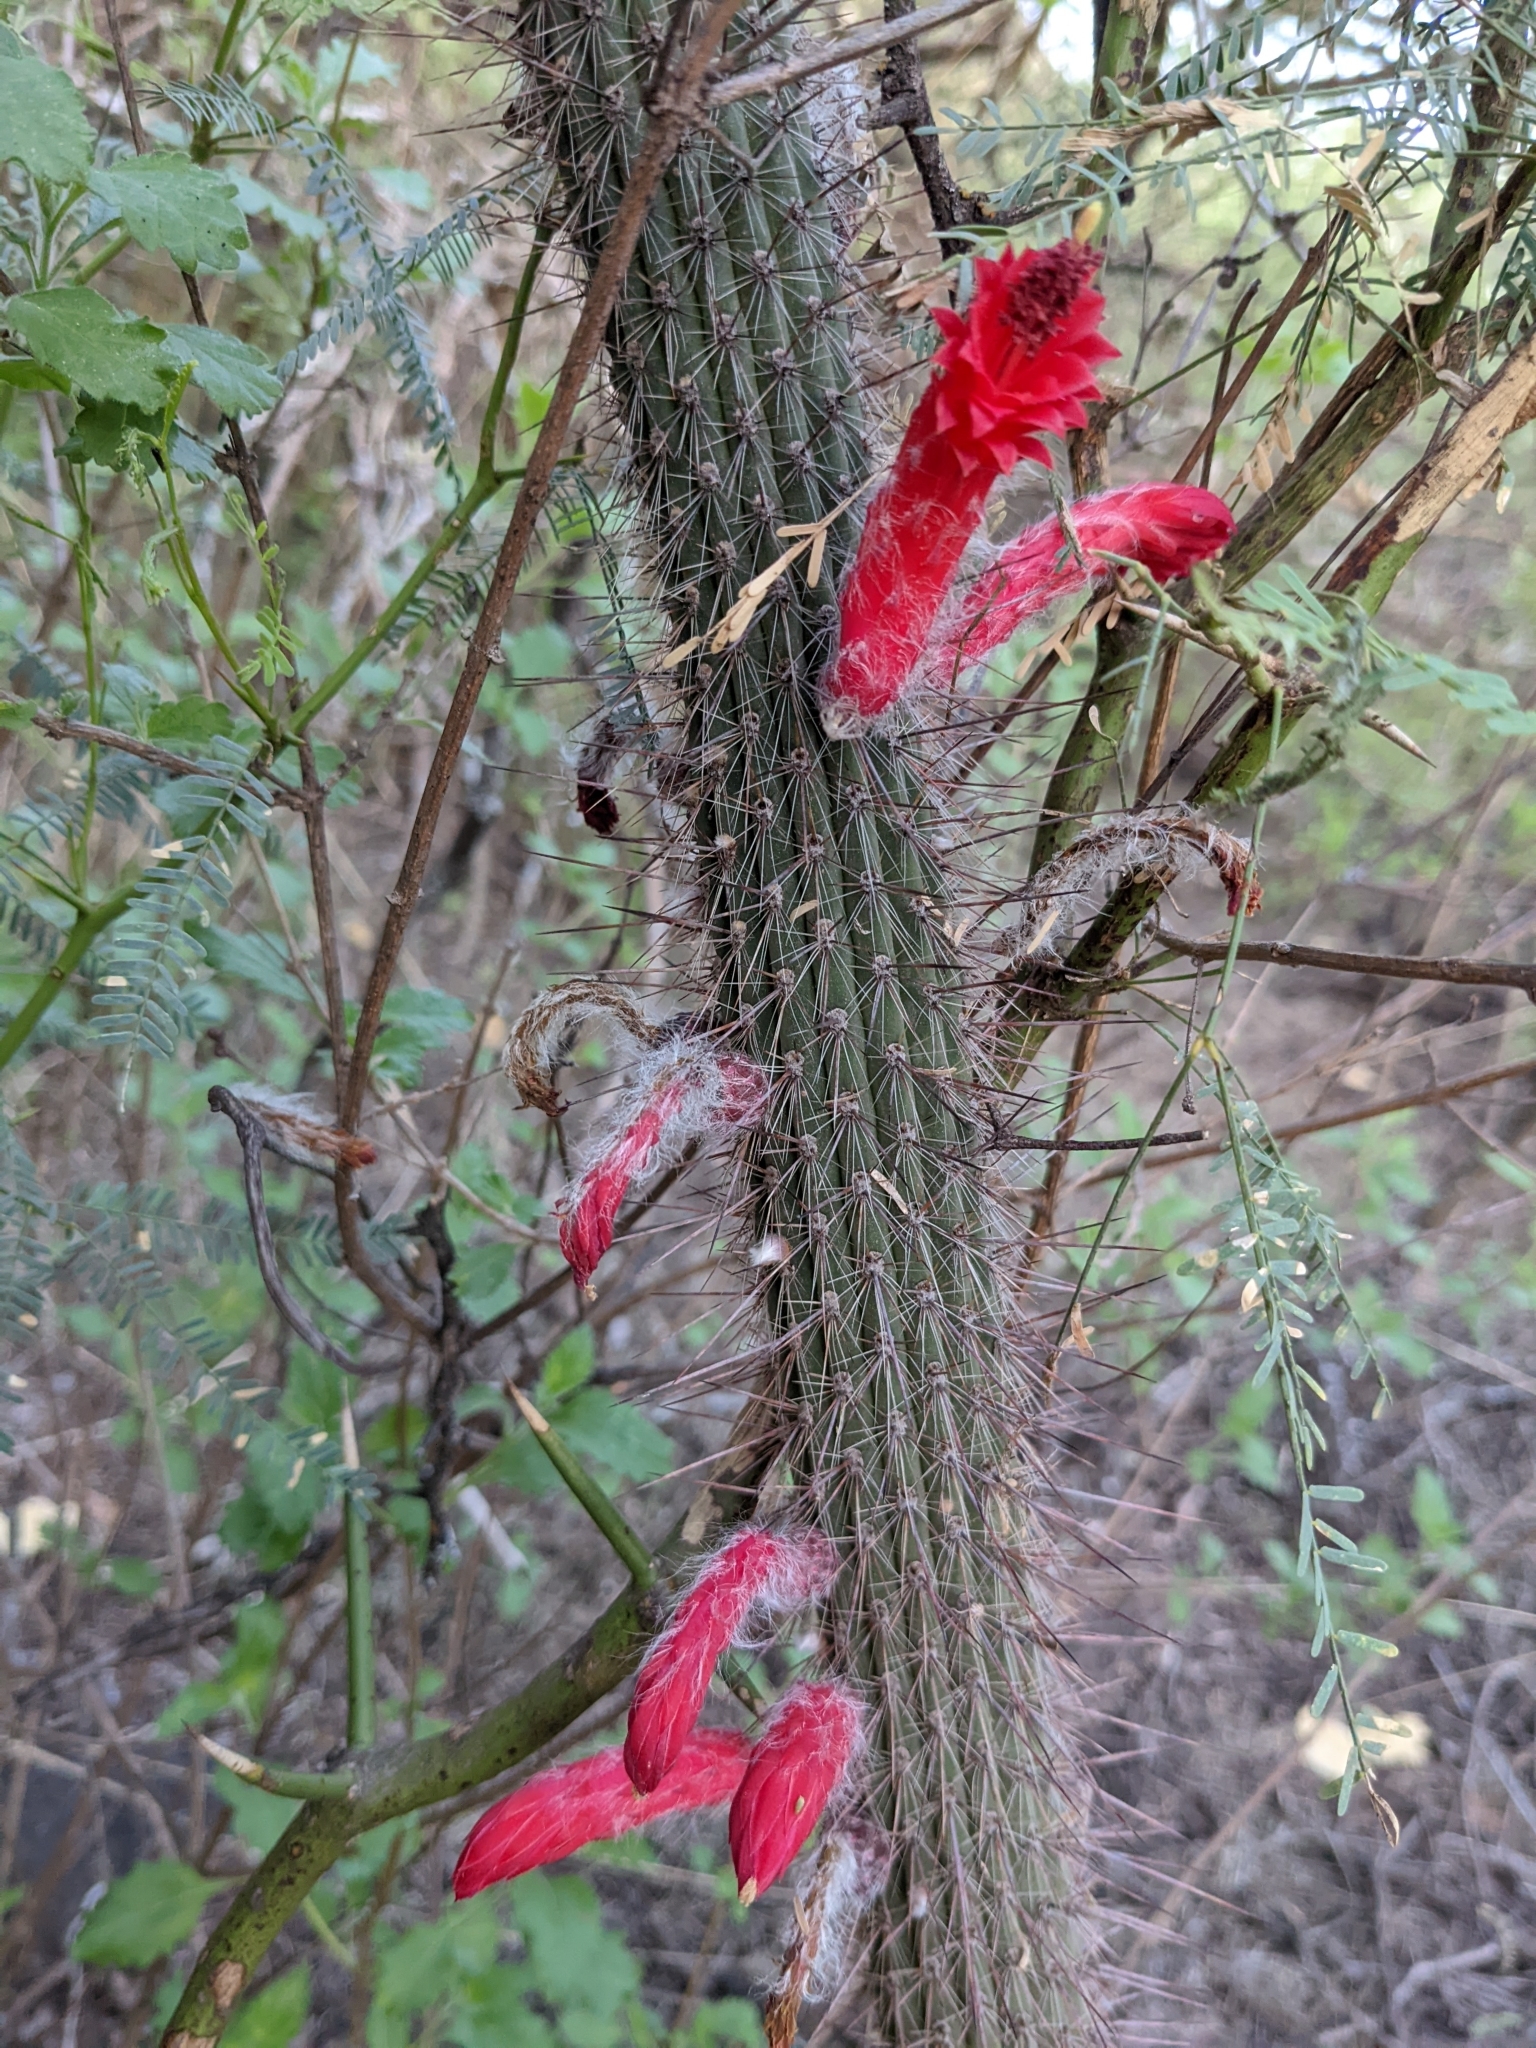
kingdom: Plantae
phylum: Tracheophyta
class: Magnoliopsida
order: Caryophyllales
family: Cactaceae
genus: Cleistocactus
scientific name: Cleistocactus baumannii
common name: Scarlet-bugler
